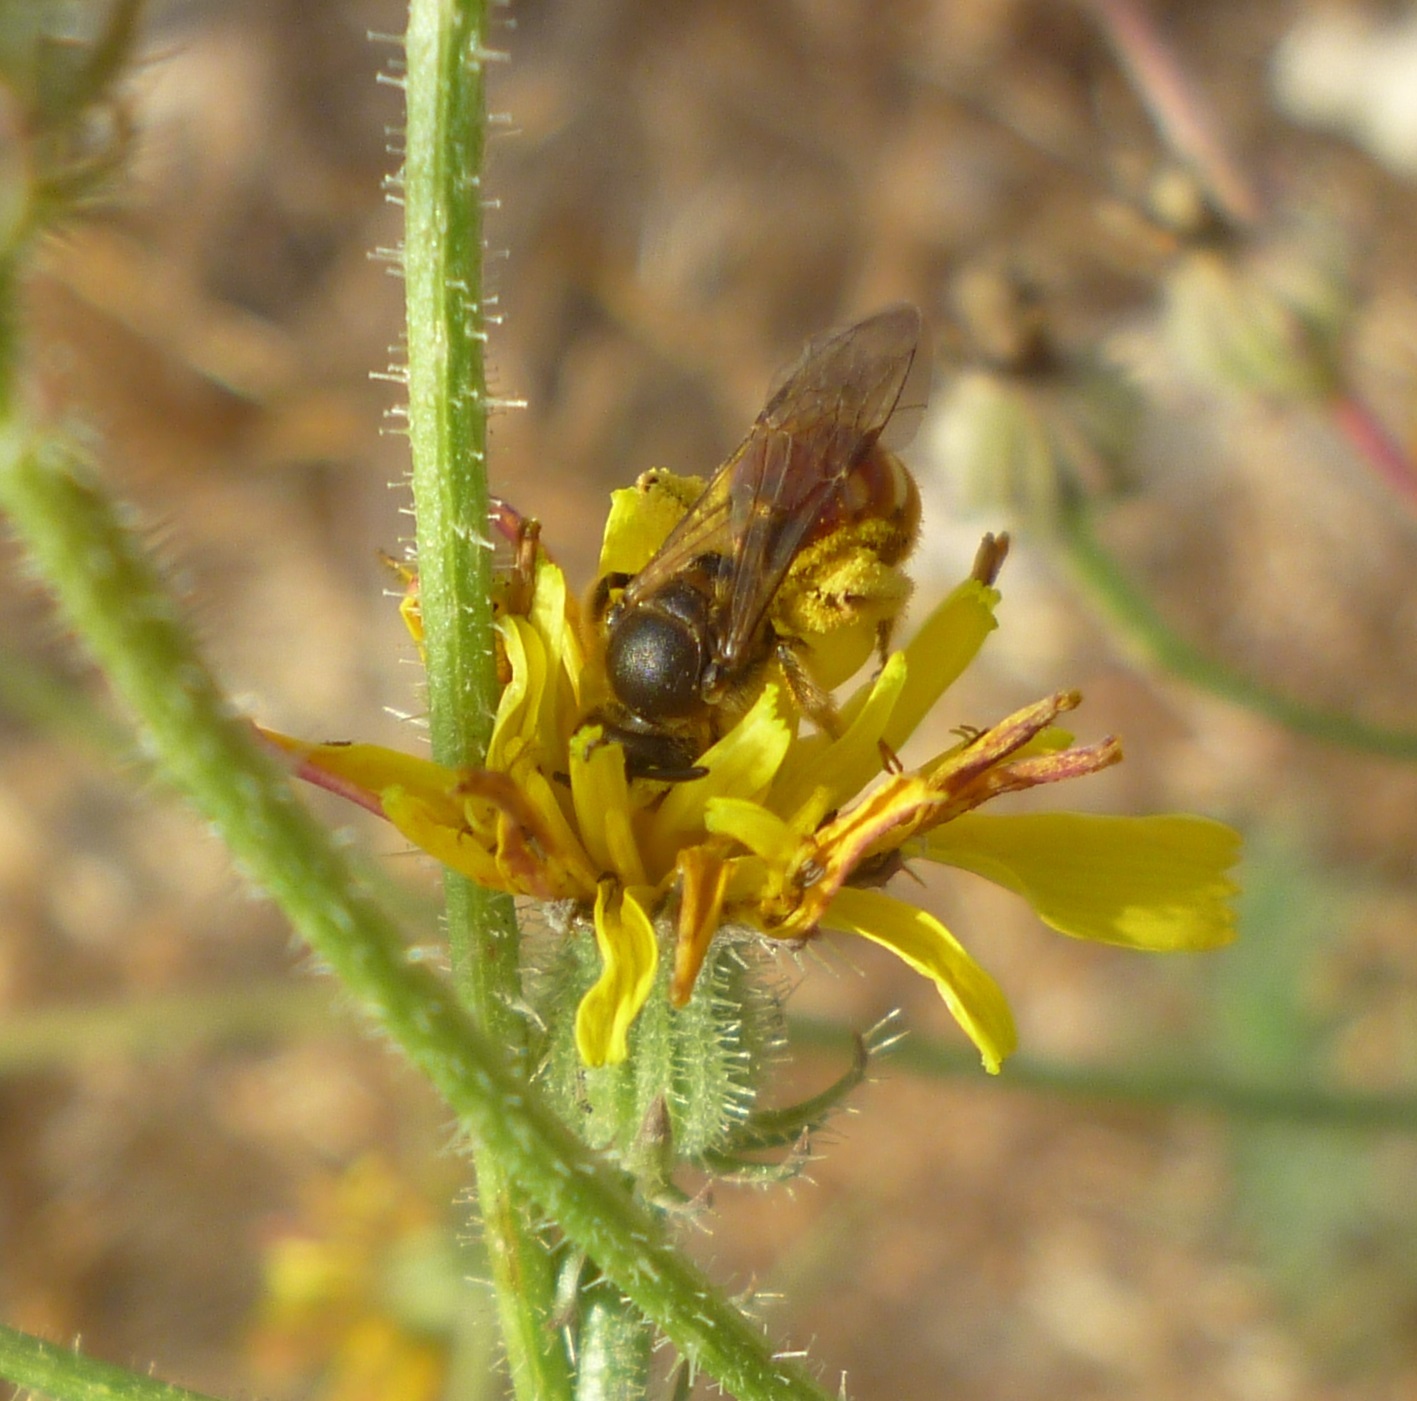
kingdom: Animalia
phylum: Arthropoda
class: Insecta
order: Hymenoptera
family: Halictidae
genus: Lasioglossum
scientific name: Lasioglossum nigripes
